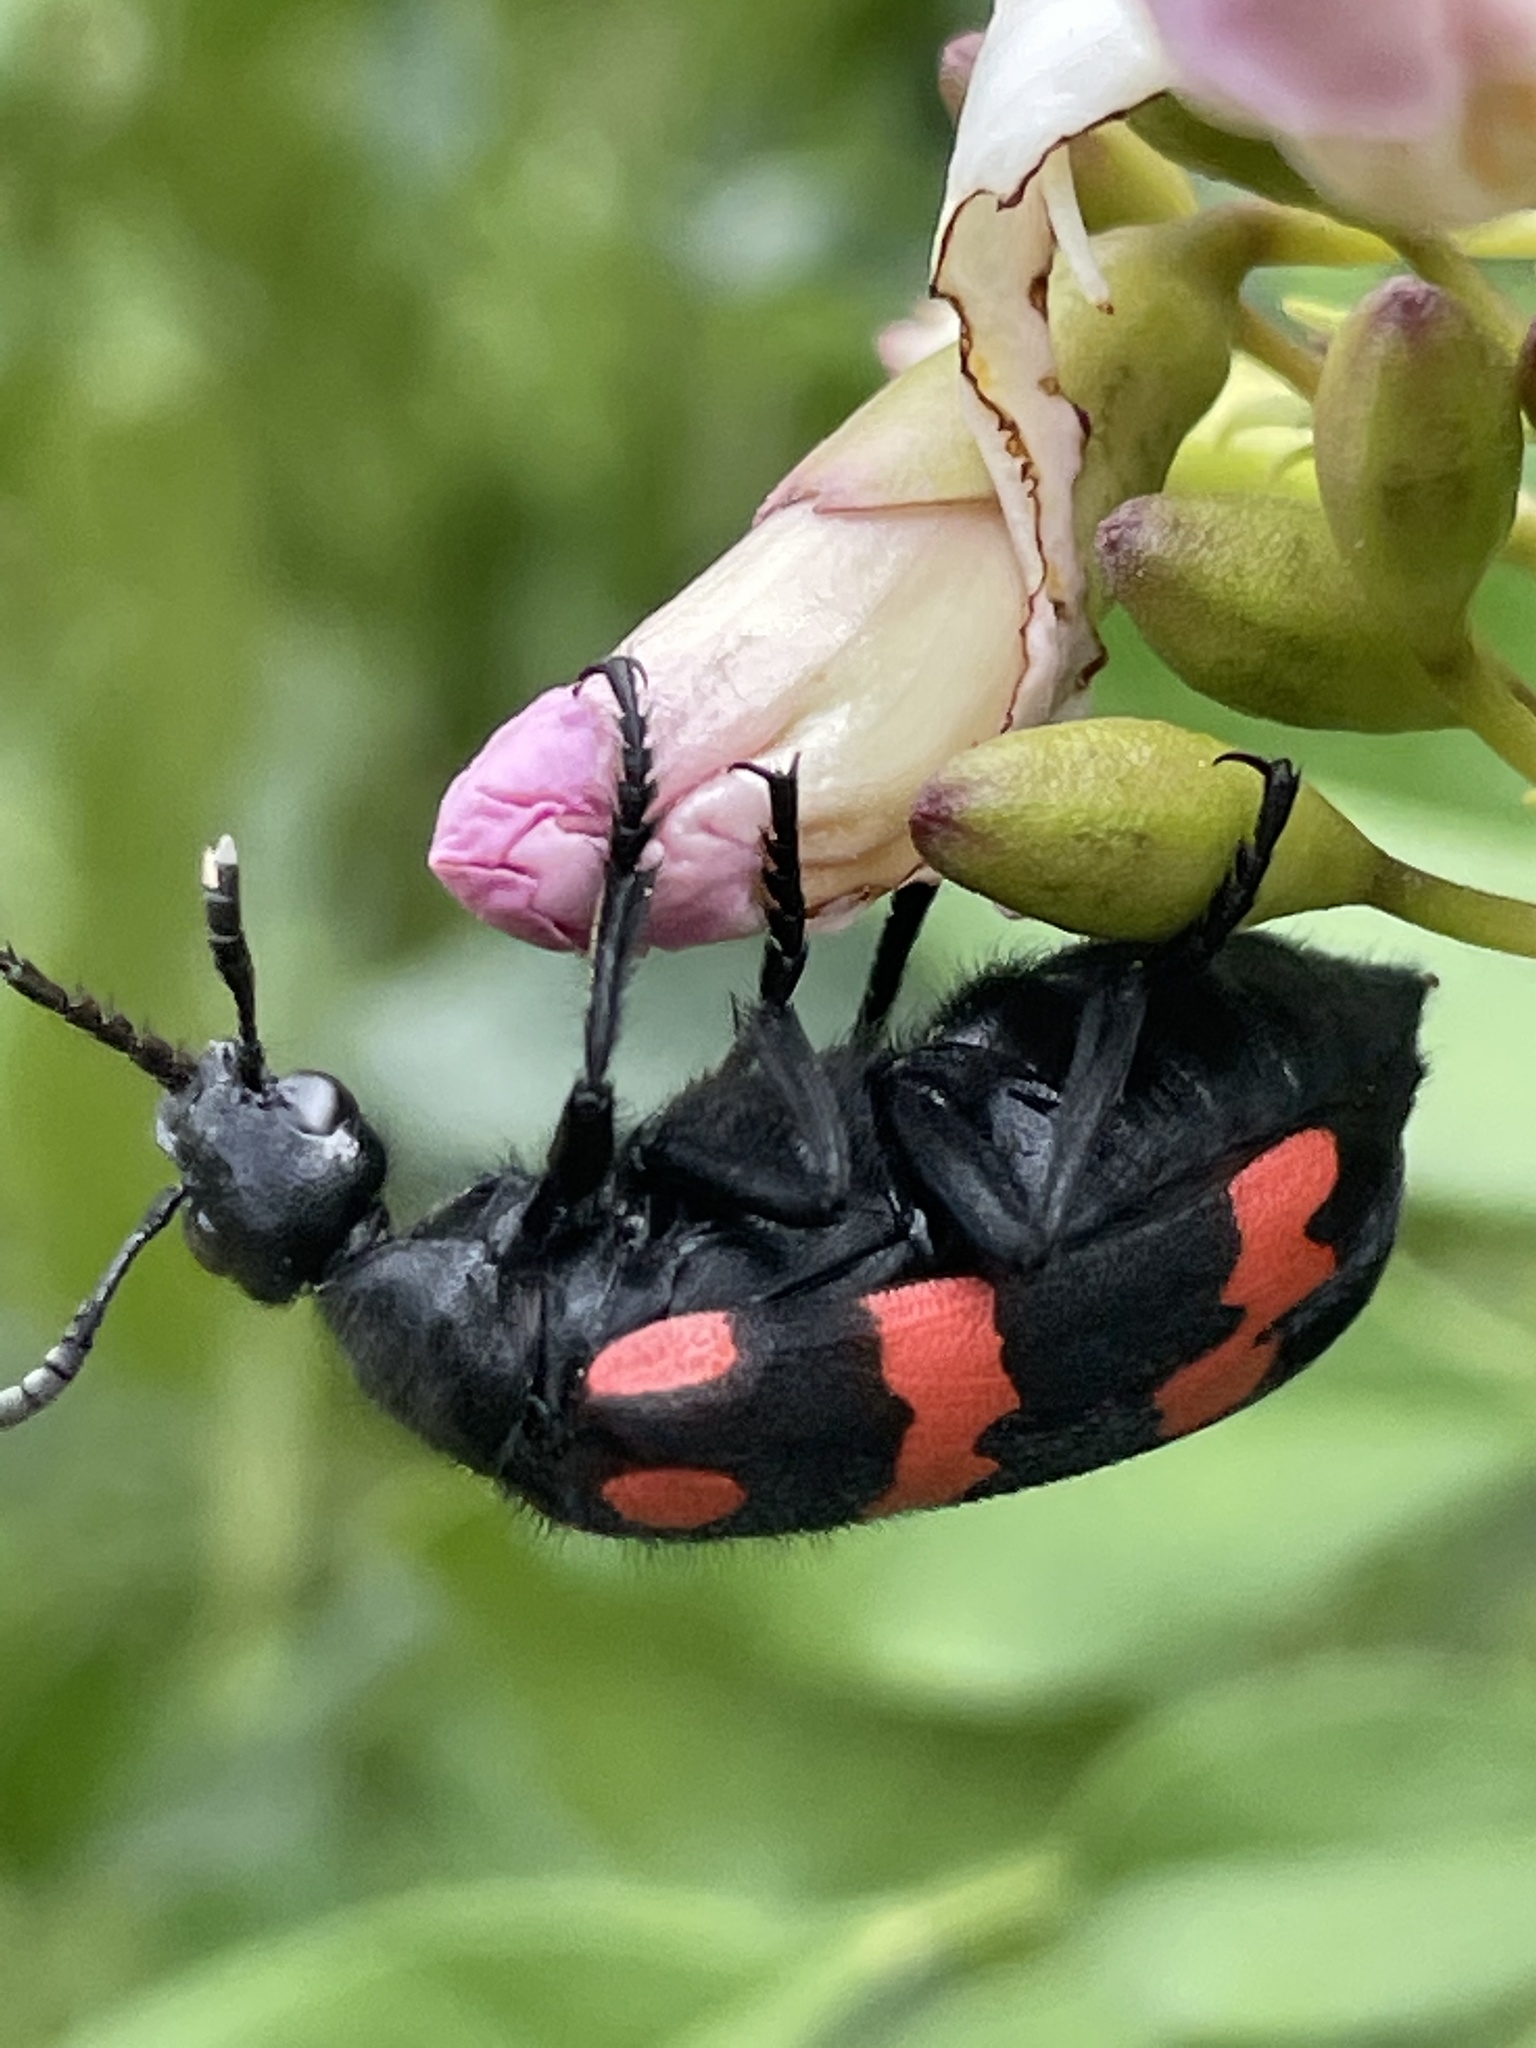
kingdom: Animalia
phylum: Arthropoda
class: Insecta
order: Coleoptera
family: Meloidae
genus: Hycleus
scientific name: Hycleus biundulatus
